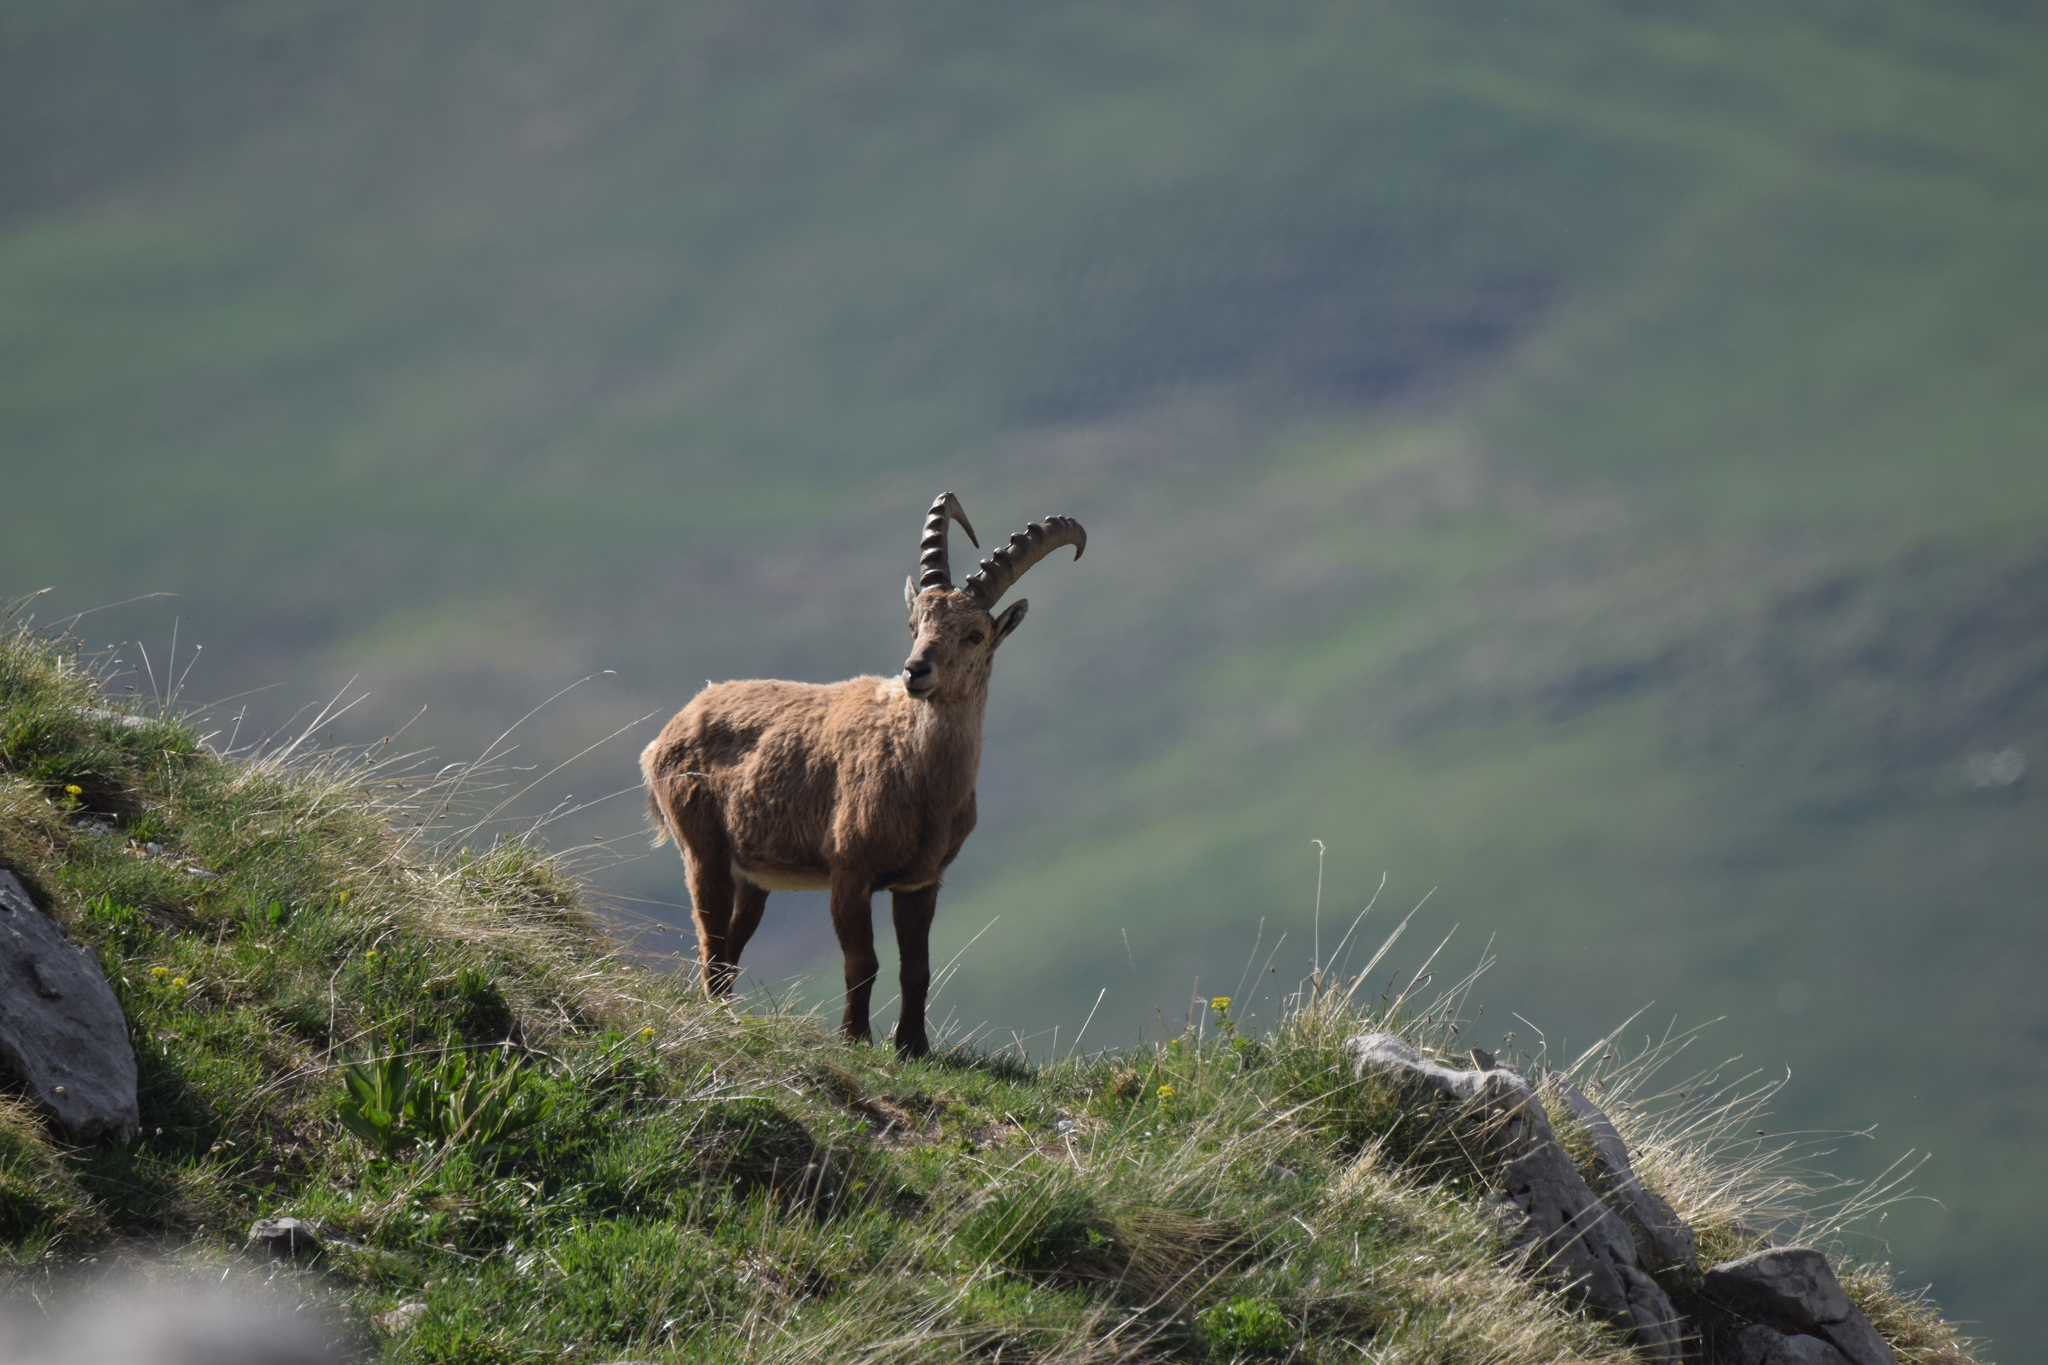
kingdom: Animalia
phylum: Chordata
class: Mammalia
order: Artiodactyla
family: Bovidae
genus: Capra
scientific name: Capra ibex
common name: Alpine ibex
